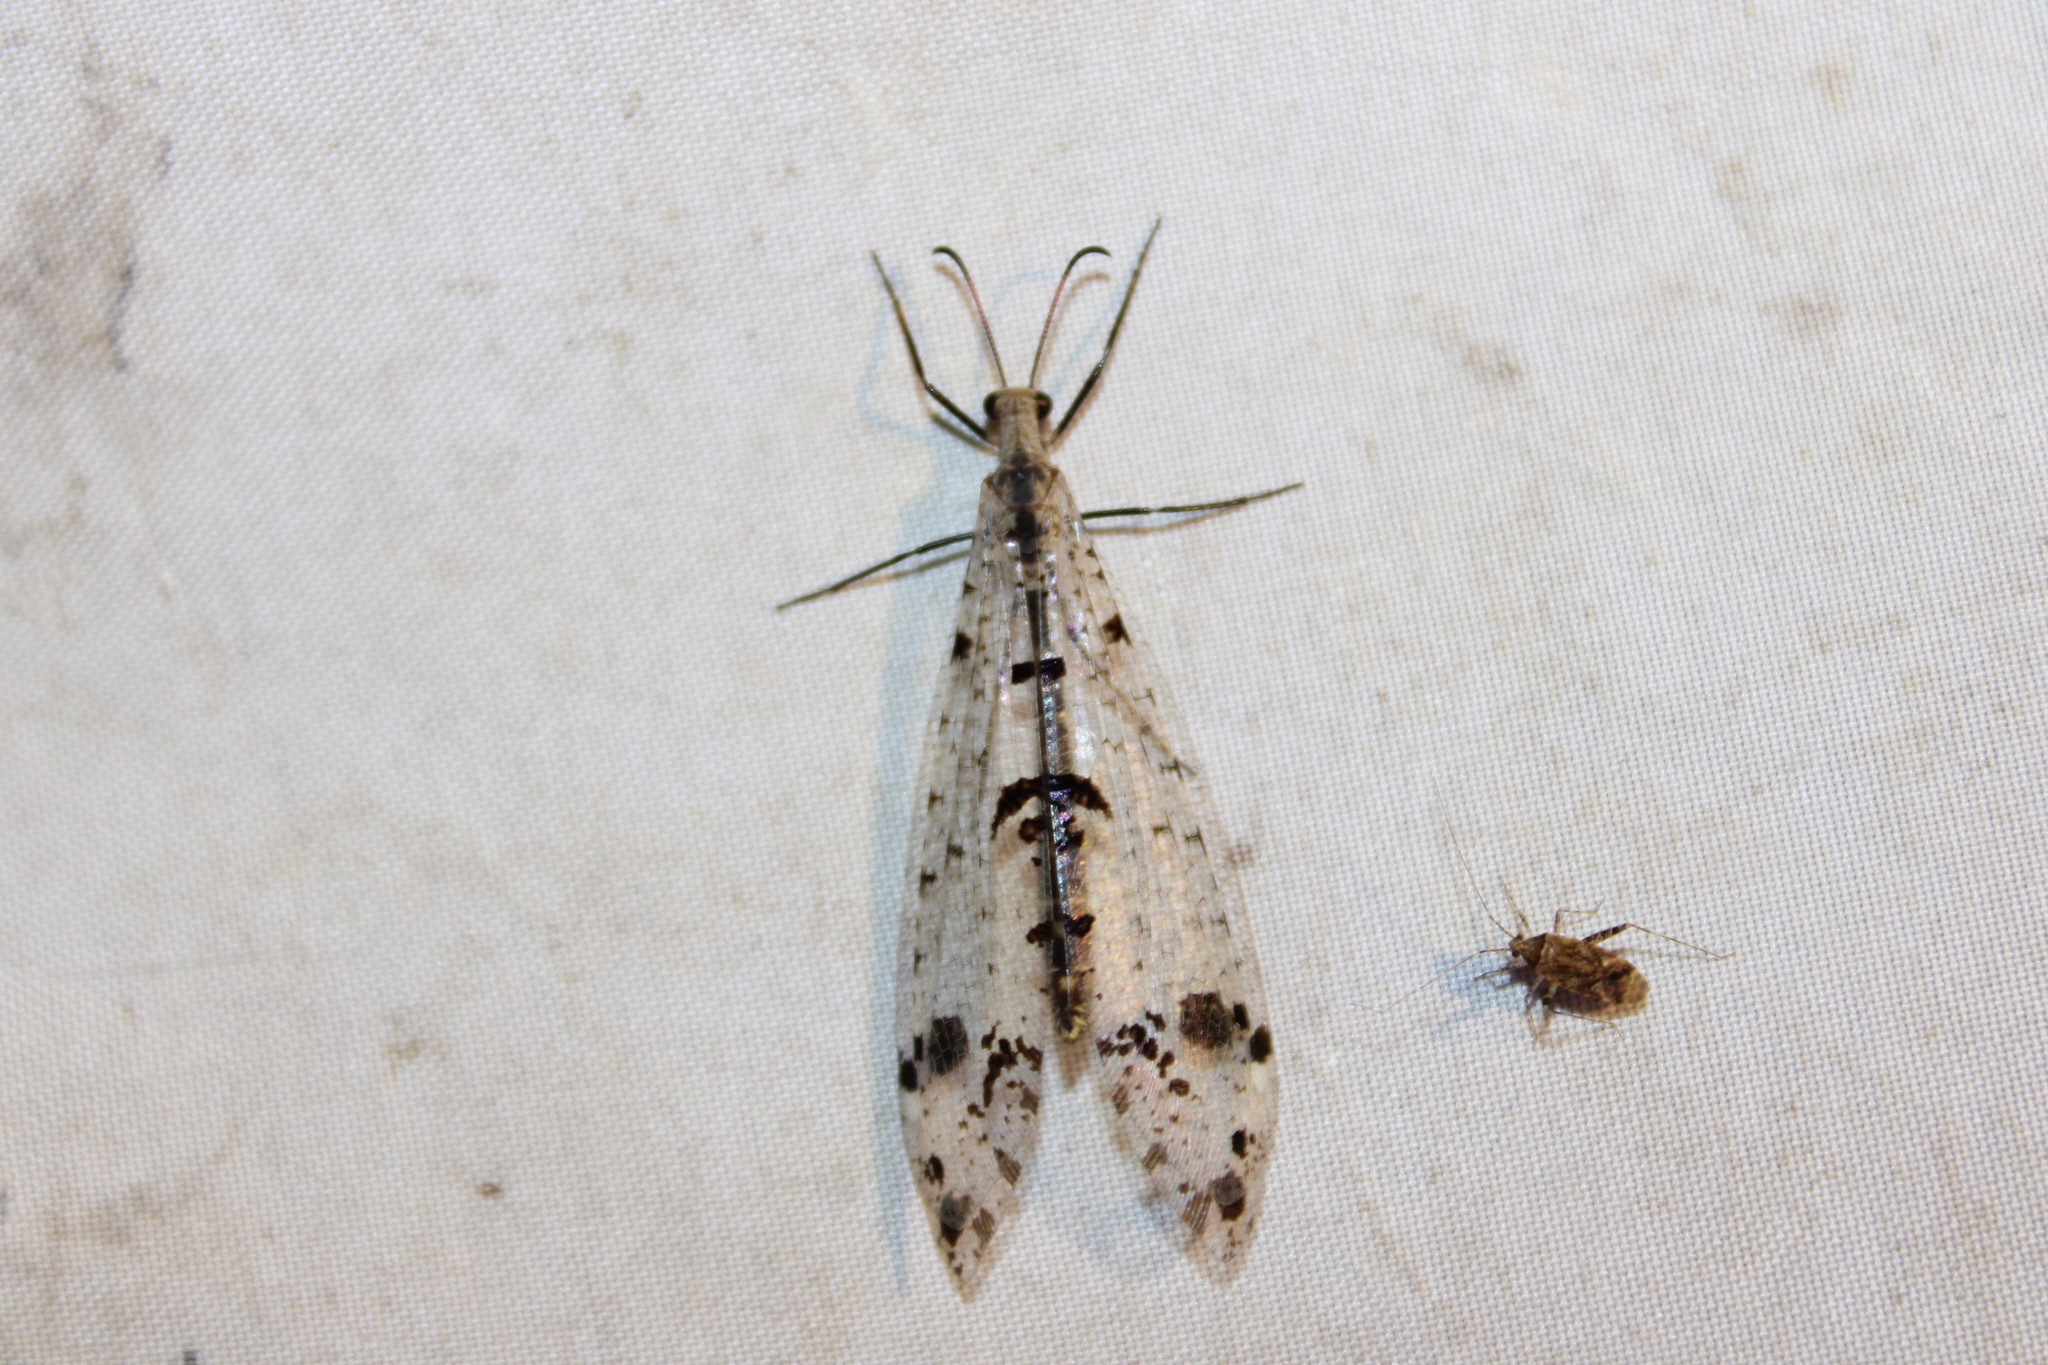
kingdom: Animalia
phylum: Arthropoda
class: Insecta
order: Neuroptera
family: Myrmeleontidae
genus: Dendroleon
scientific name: Dendroleon obsoletus
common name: Eastern spotted-winged antlion
